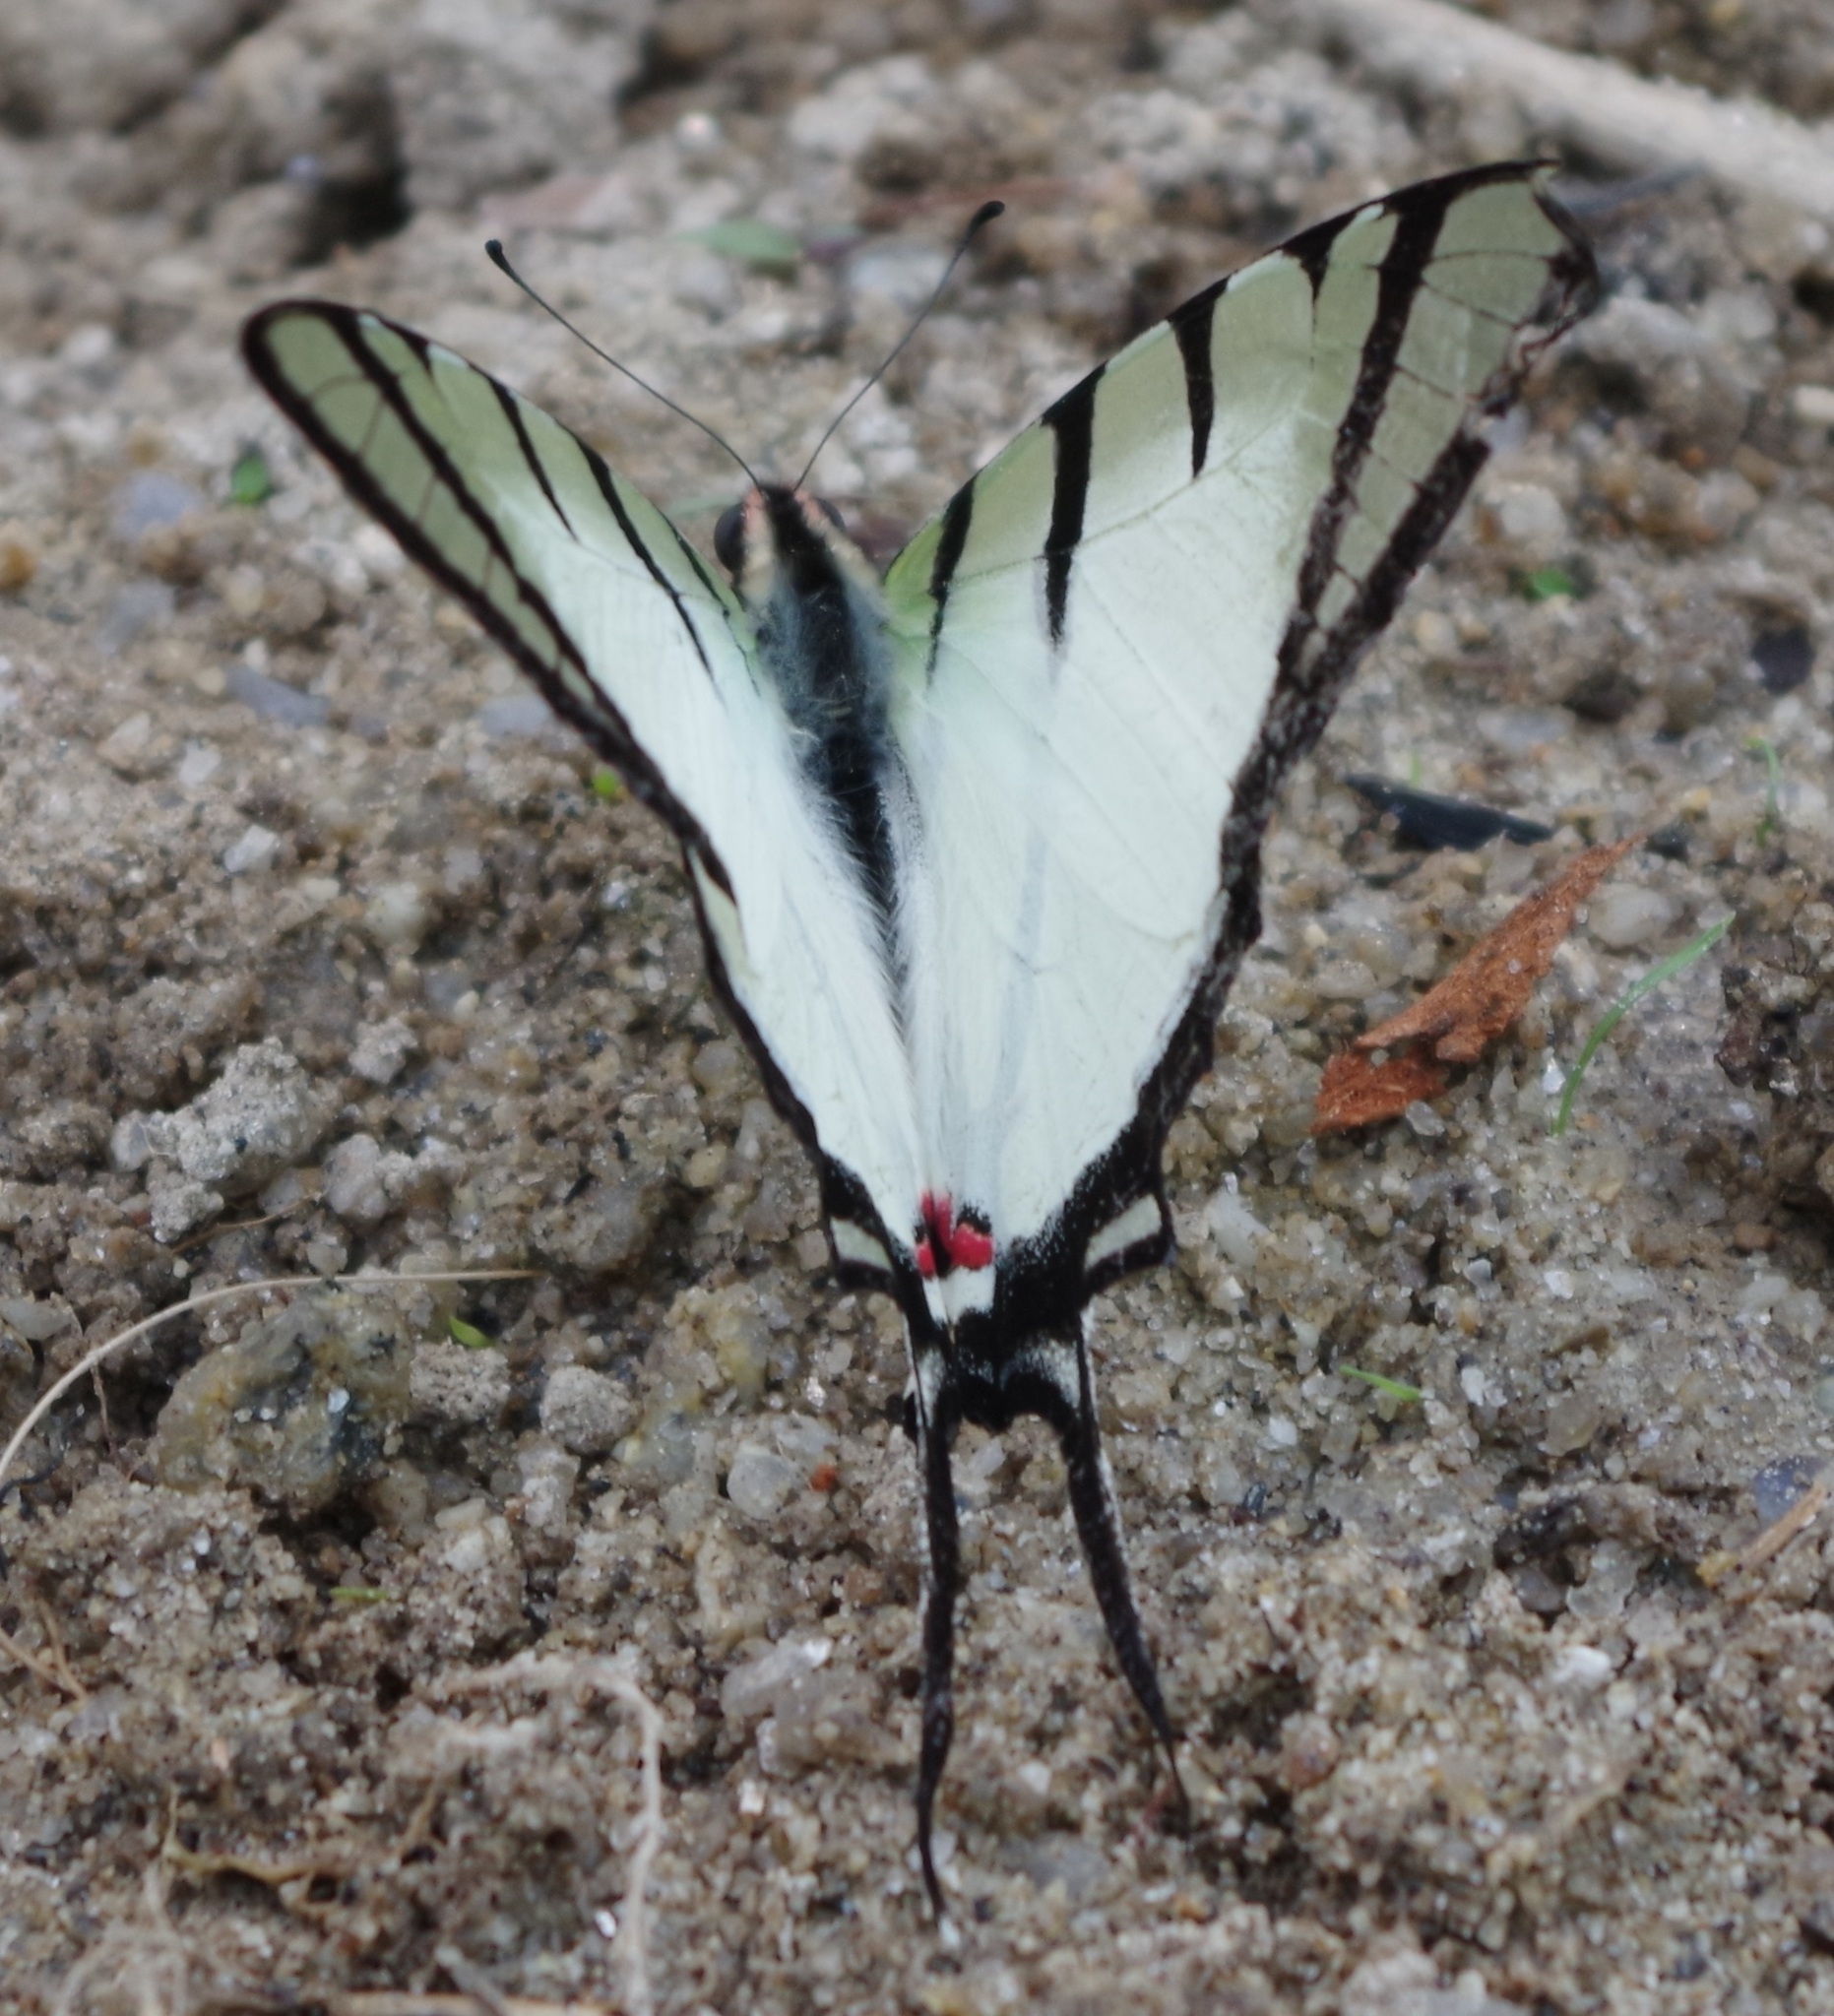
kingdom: Animalia
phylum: Arthropoda
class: Insecta
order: Lepidoptera
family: Papilionidae
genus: Graphium
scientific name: Graphium agetes
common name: Fourbar swordtail
